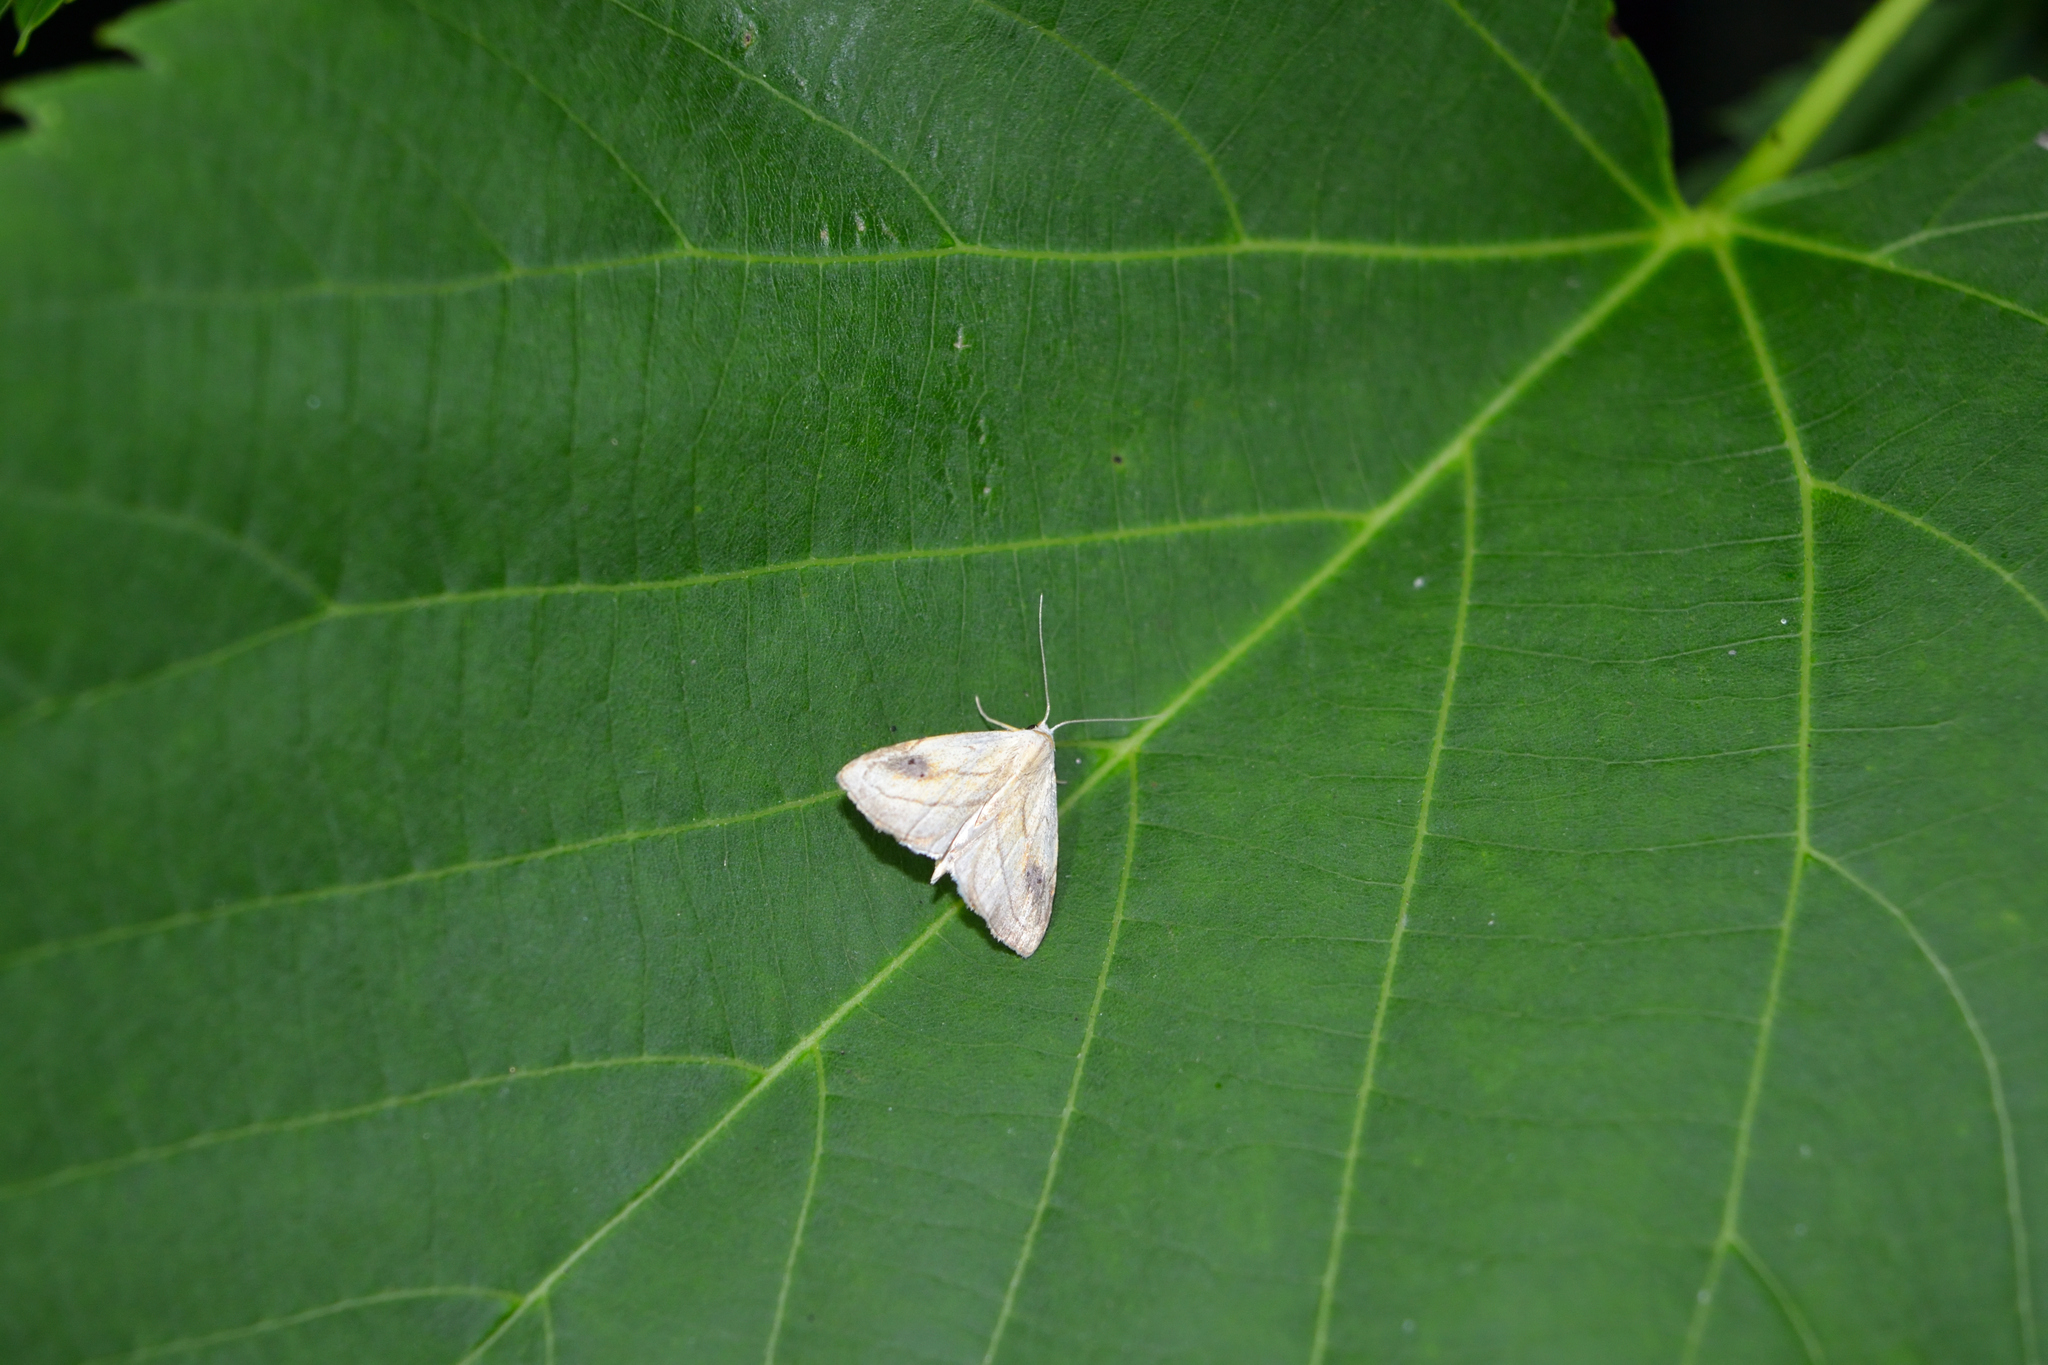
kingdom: Animalia
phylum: Arthropoda
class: Insecta
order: Lepidoptera
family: Erebidae
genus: Rivula
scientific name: Rivula propinqualis
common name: Spotted grass moth
